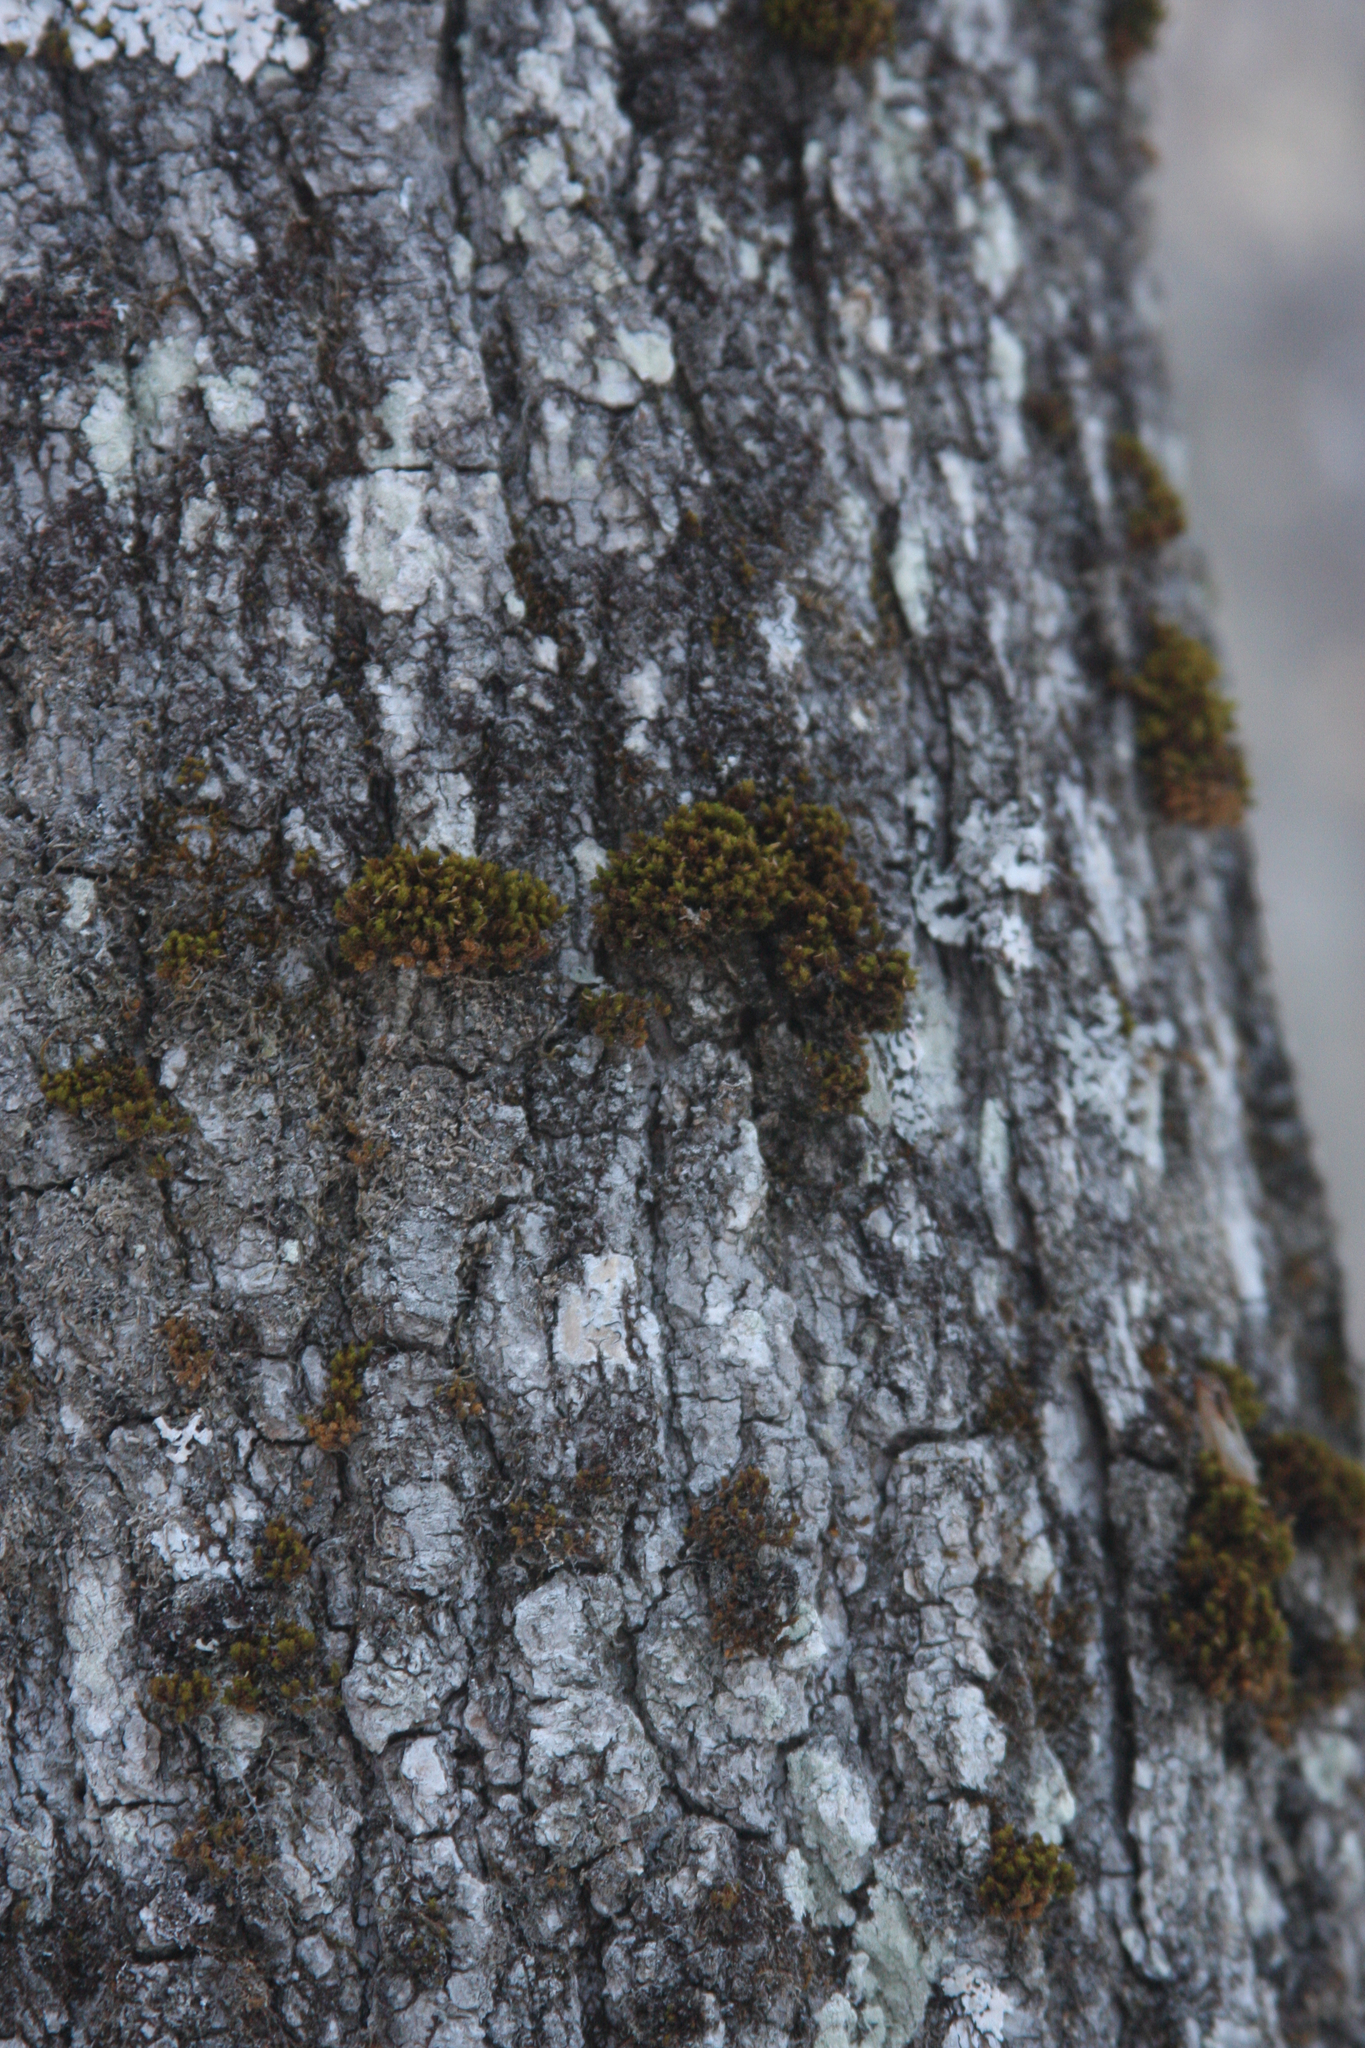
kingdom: Plantae
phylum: Bryophyta
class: Bryopsida
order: Orthotrichales
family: Orthotrichaceae
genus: Ulota
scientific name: Ulota crispa
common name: Crisped pincushion moss
